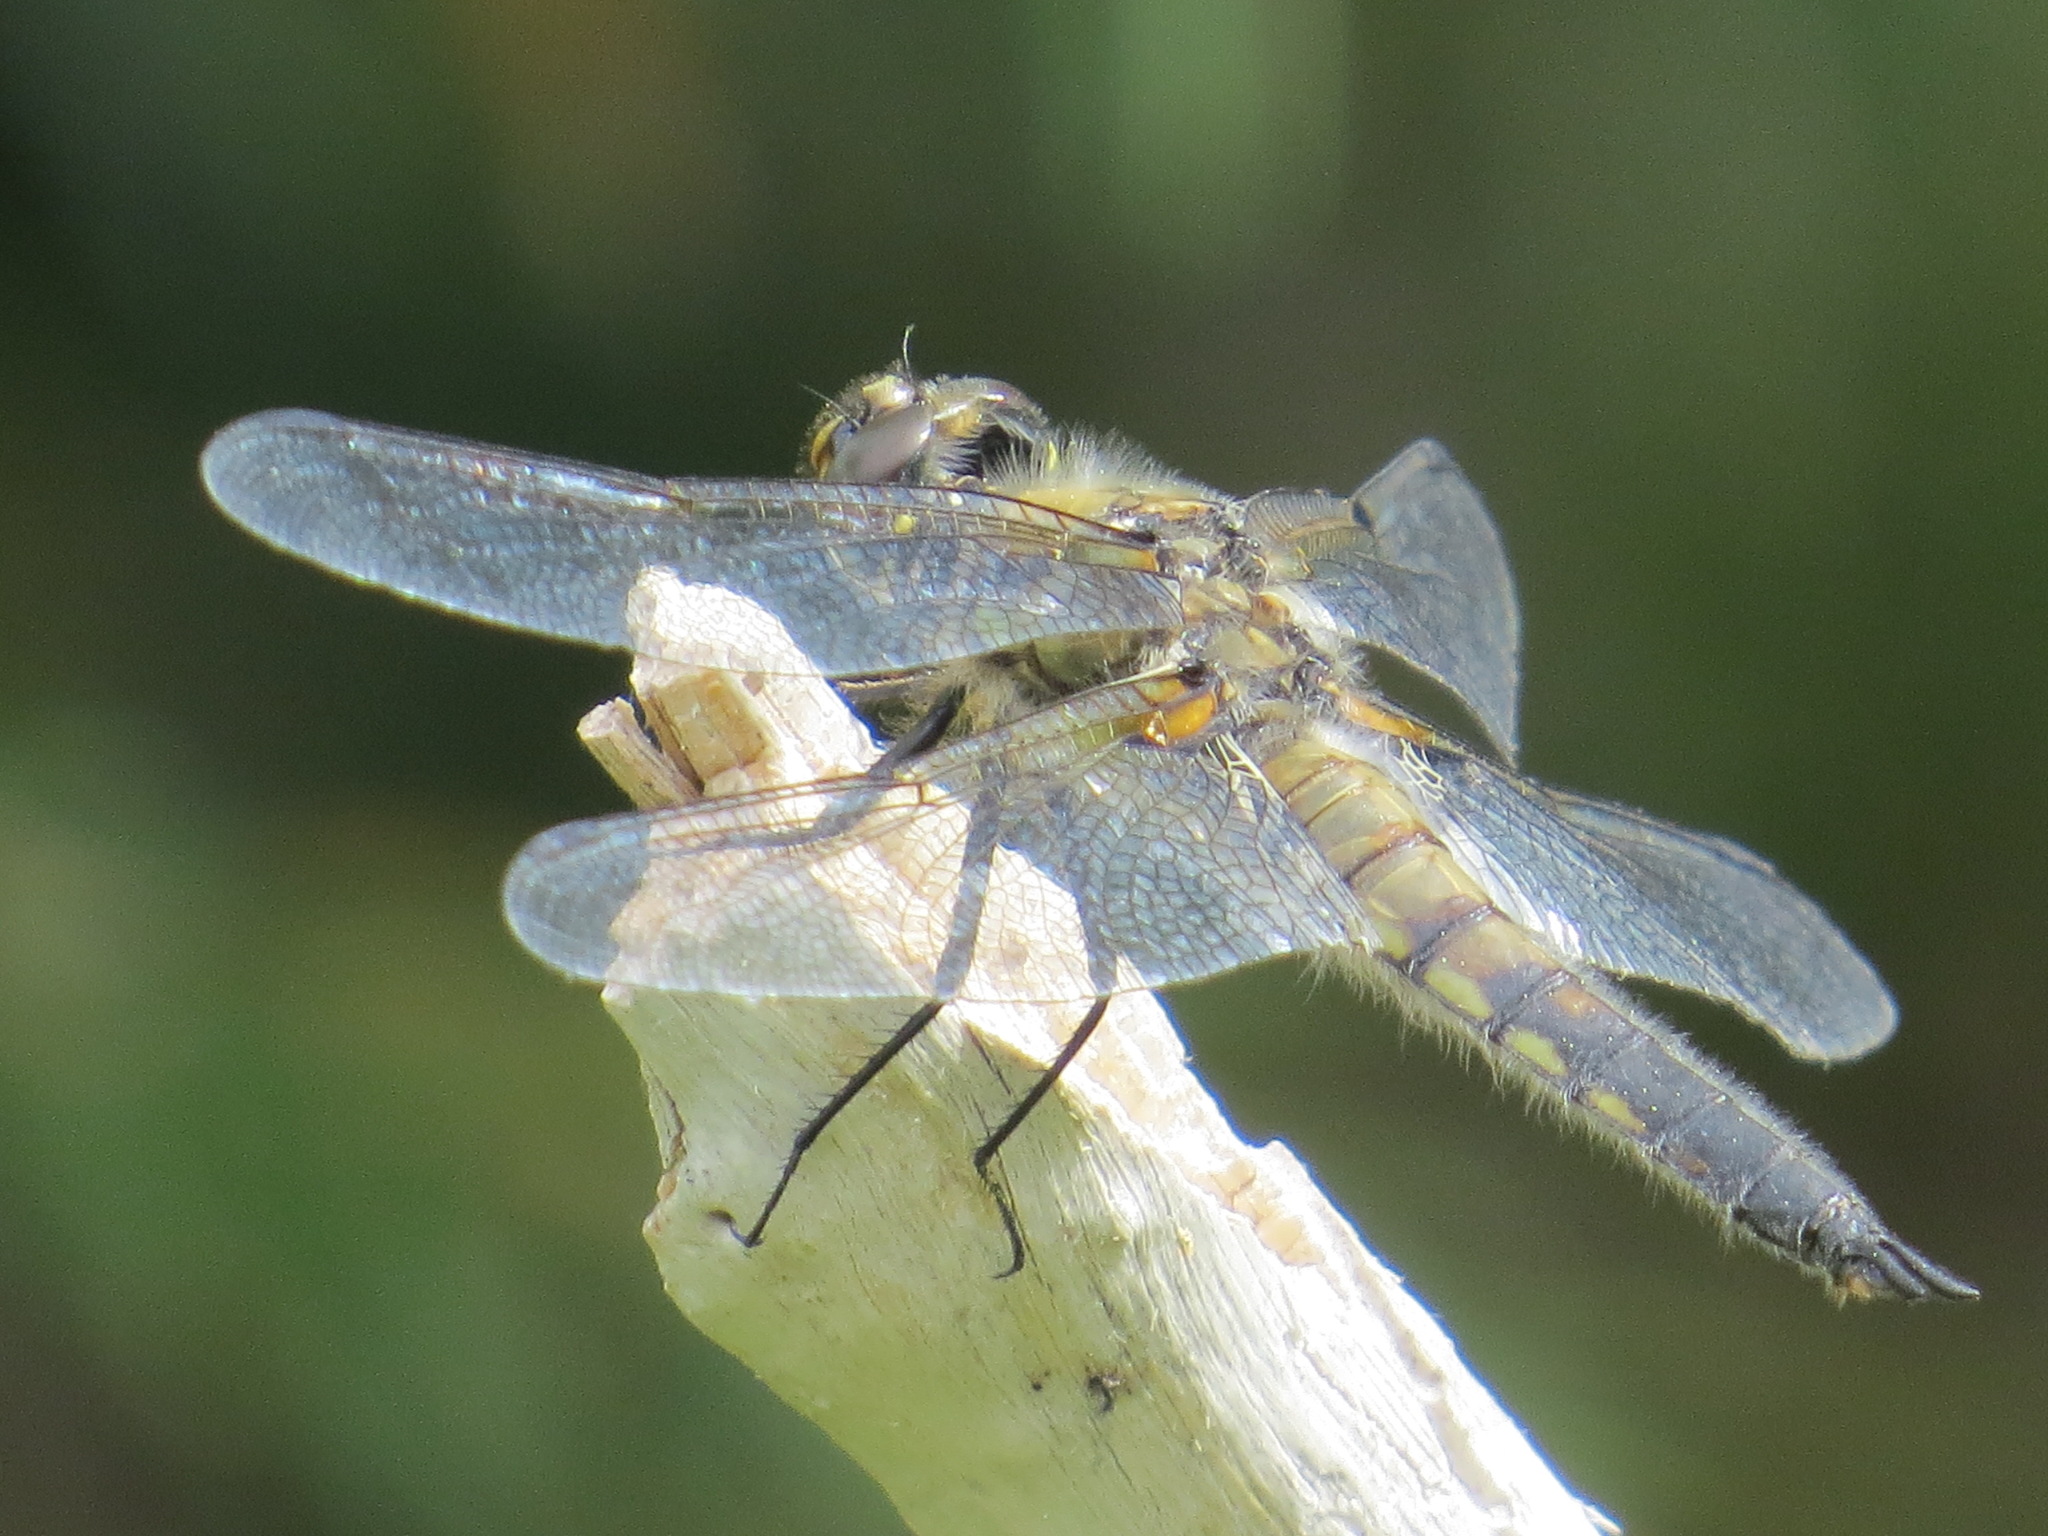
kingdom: Animalia
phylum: Arthropoda
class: Insecta
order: Odonata
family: Libellulidae
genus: Libellula
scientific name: Libellula quadrimaculata
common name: Four-spotted chaser
